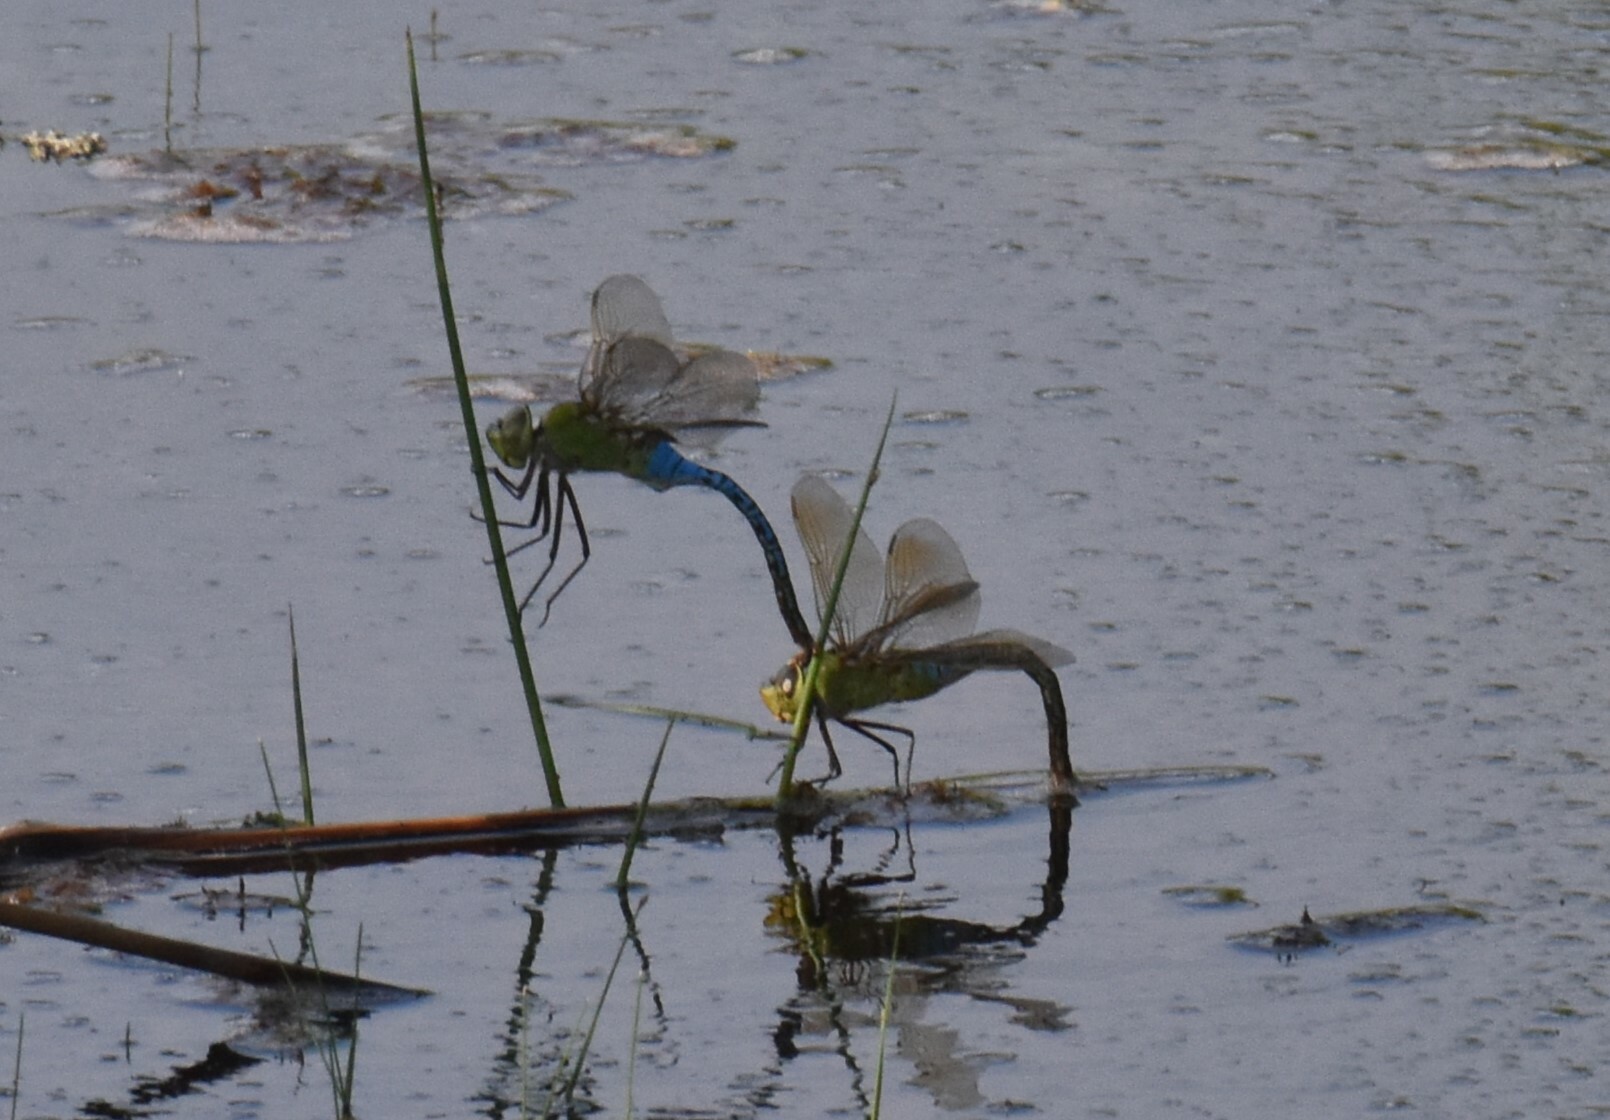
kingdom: Animalia
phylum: Arthropoda
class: Insecta
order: Odonata
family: Aeshnidae
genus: Anax
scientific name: Anax junius
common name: Common green darner
